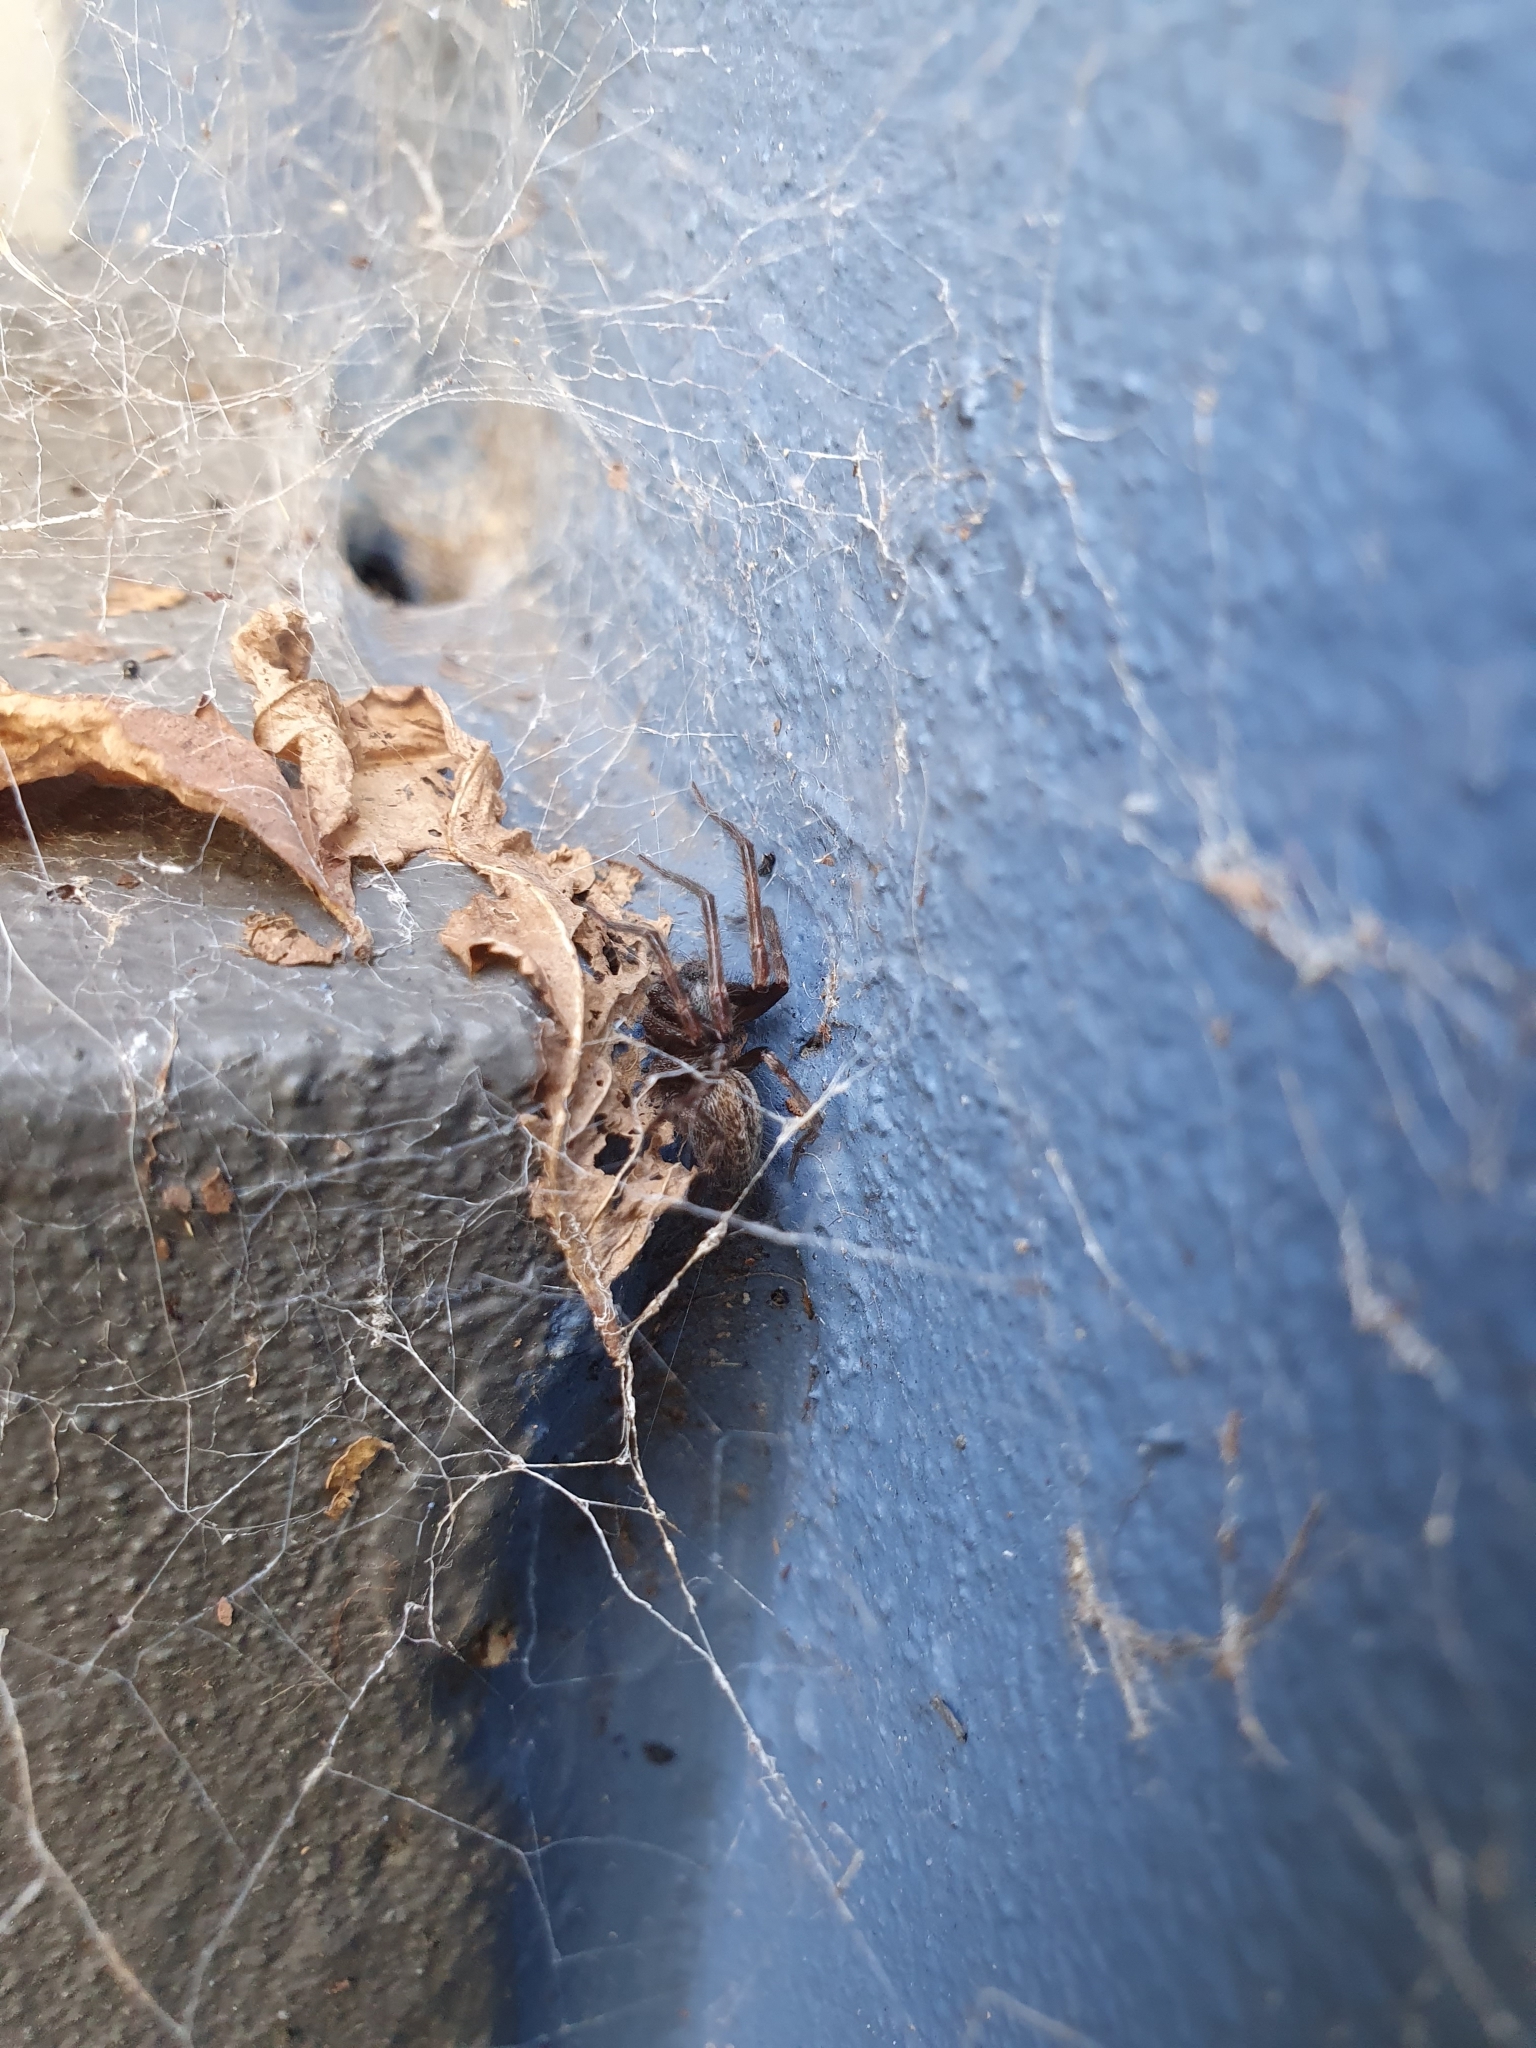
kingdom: Animalia
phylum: Arthropoda
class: Arachnida
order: Araneae
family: Desidae
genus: Badumna
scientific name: Badumna longinqua
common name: Gray house spider
